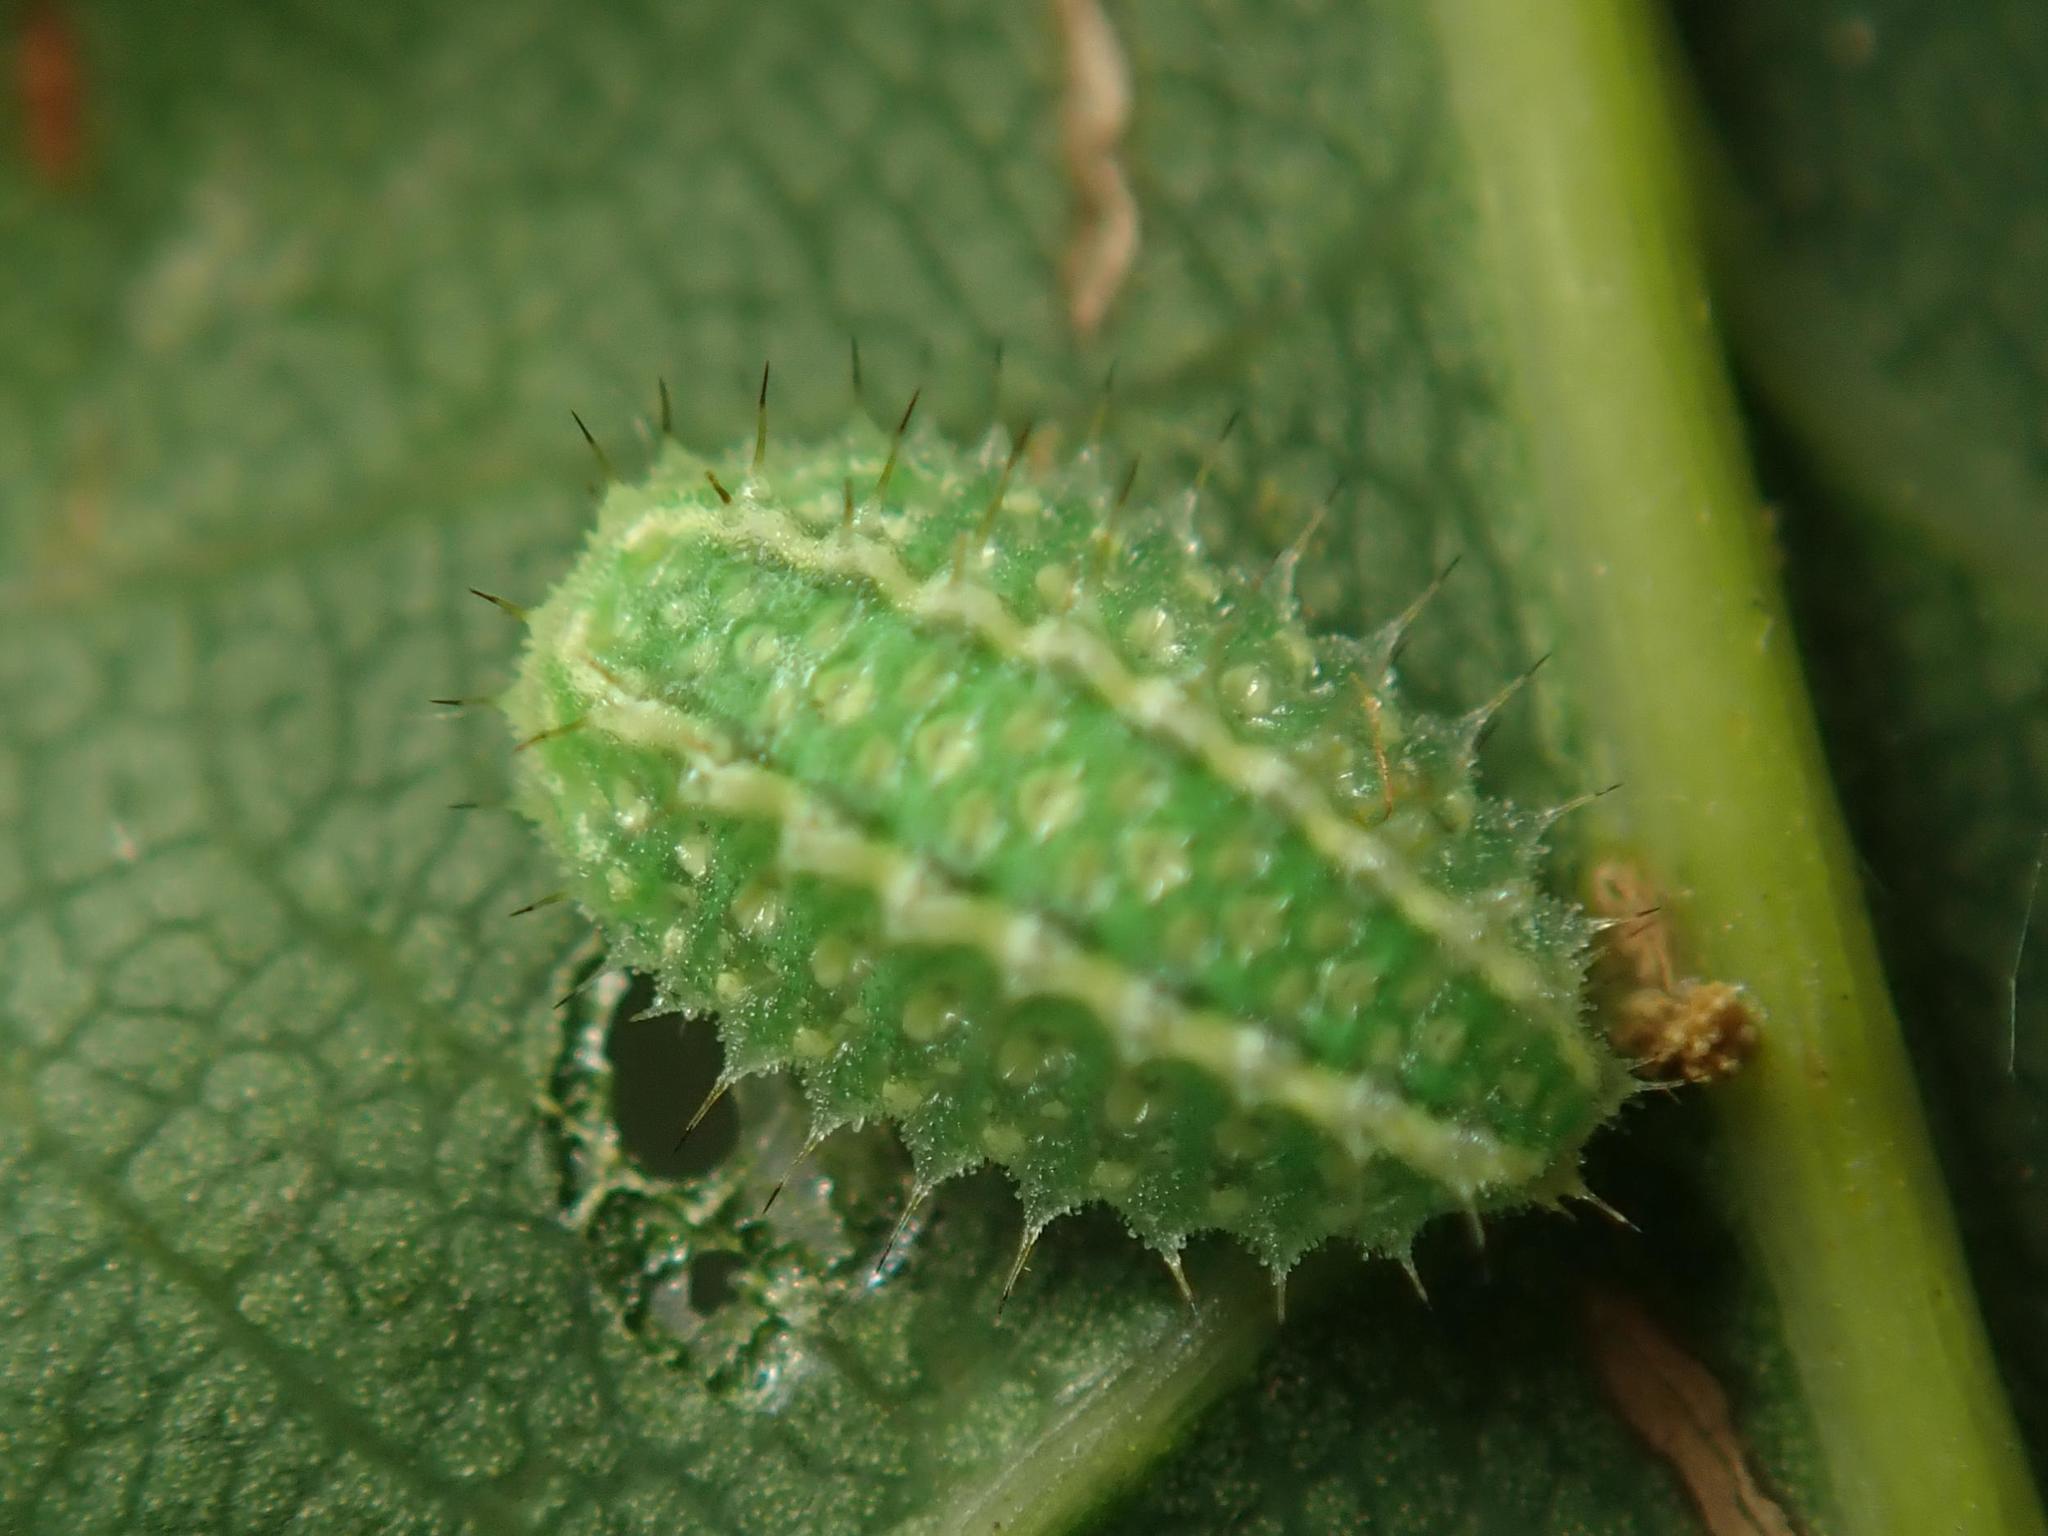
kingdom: Animalia
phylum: Arthropoda
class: Insecta
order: Lepidoptera
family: Limacodidae
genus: Apoda
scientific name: Apoda limacodes
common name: Festoon
